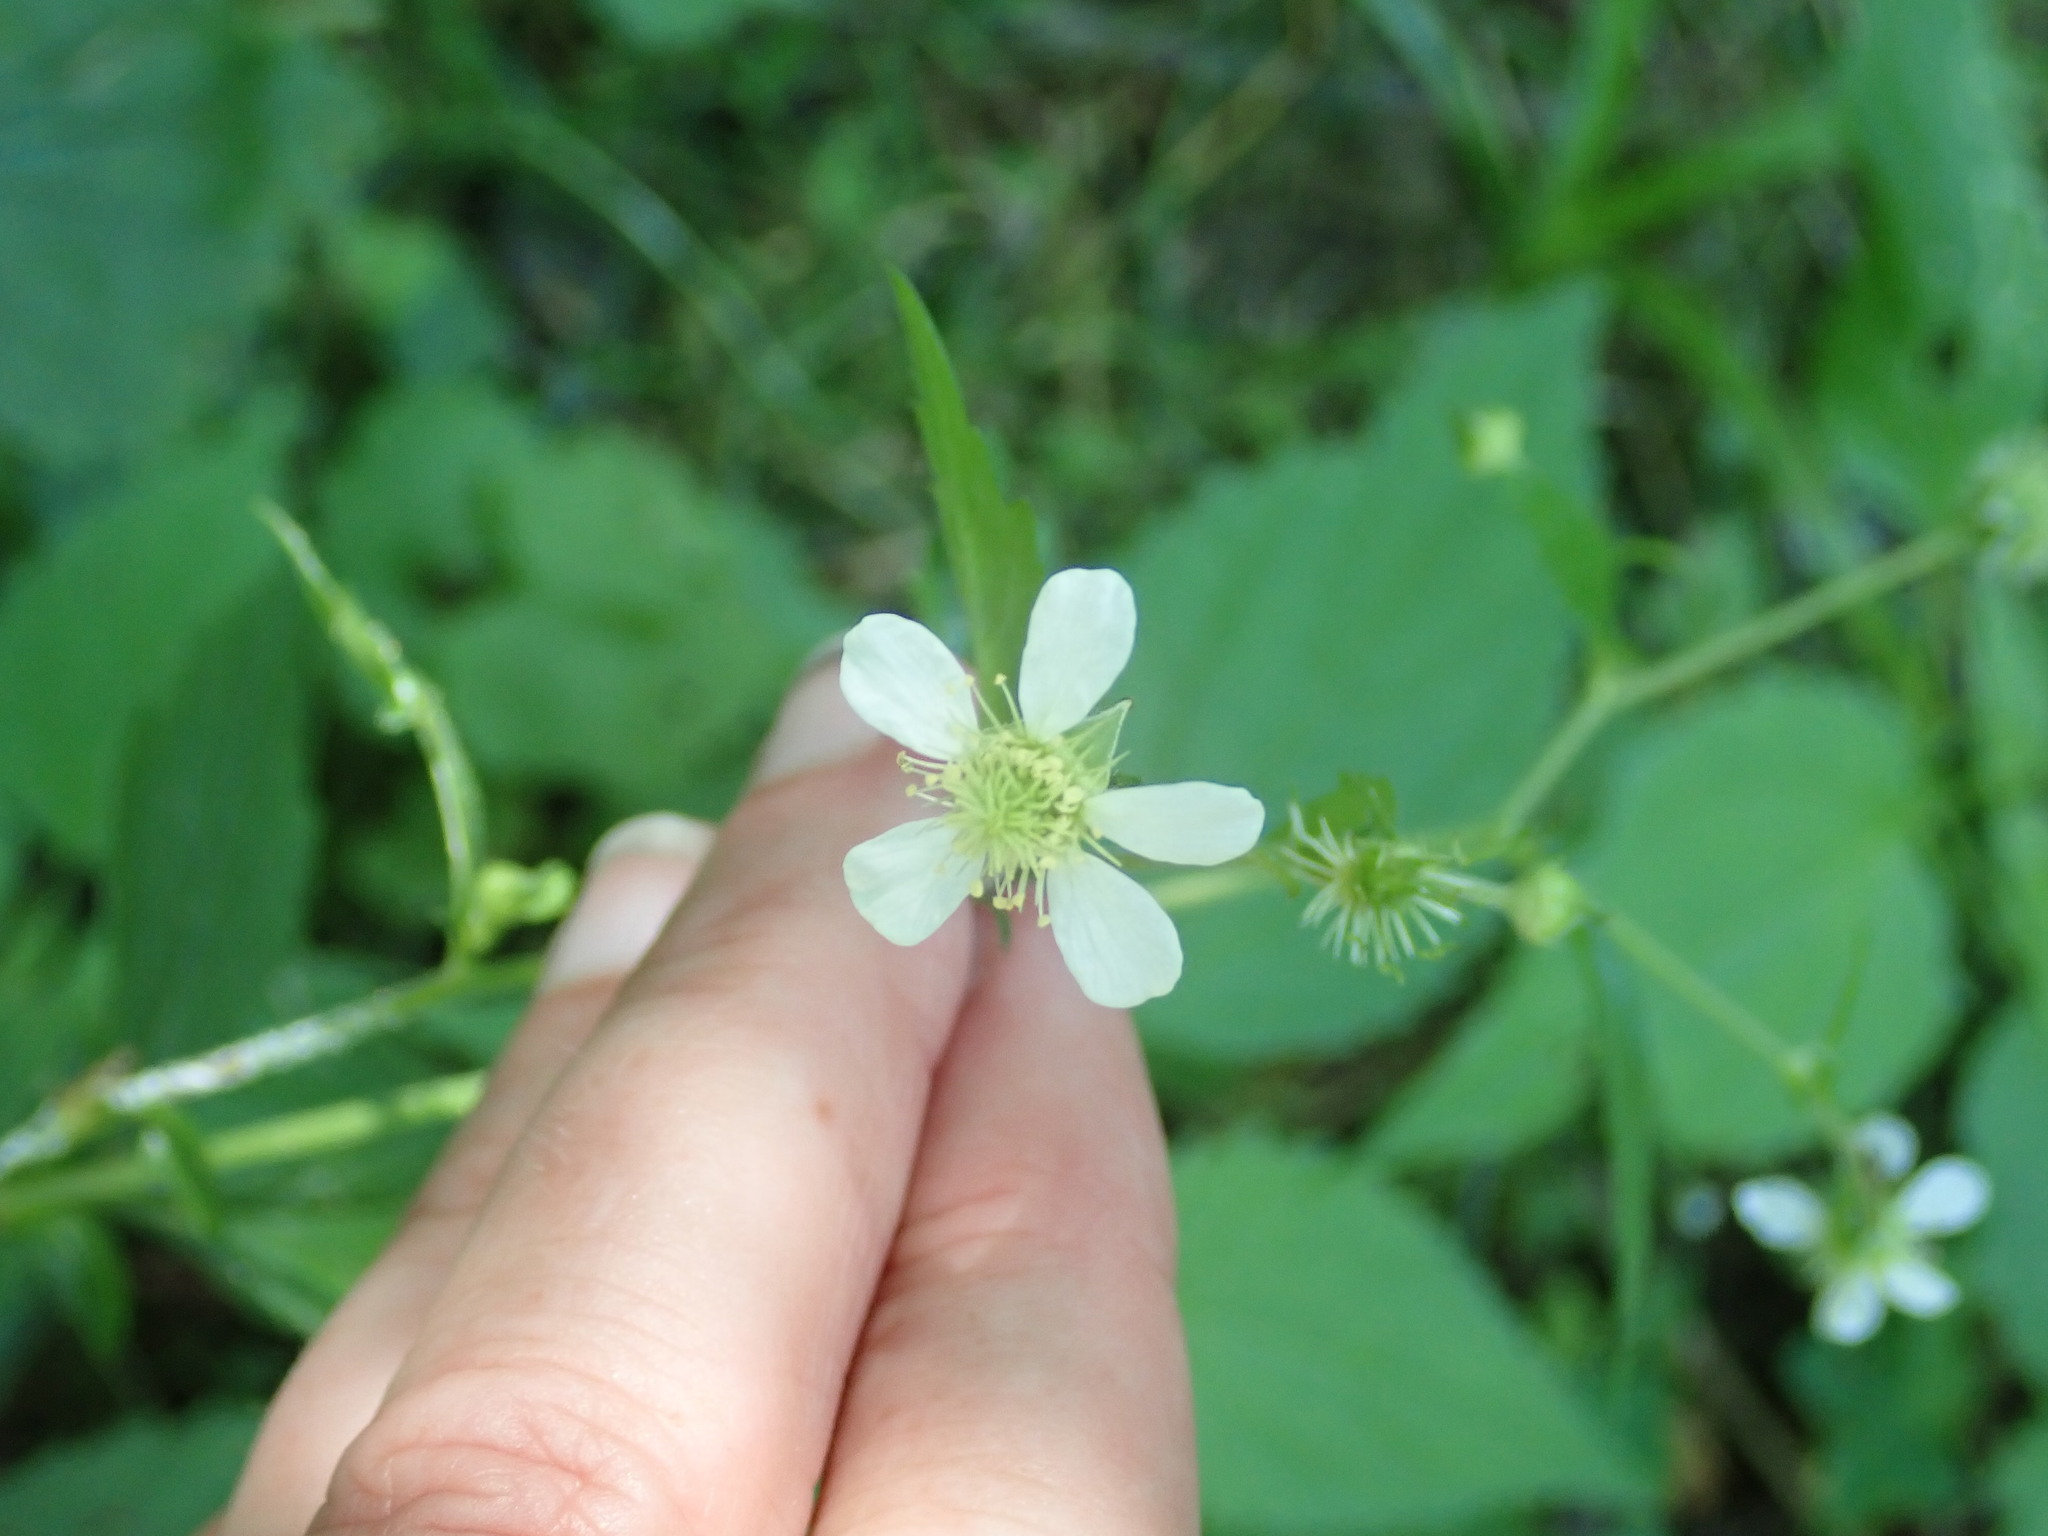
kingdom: Plantae
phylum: Tracheophyta
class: Magnoliopsida
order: Rosales
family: Rosaceae
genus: Geum
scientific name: Geum canadense
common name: White avens
